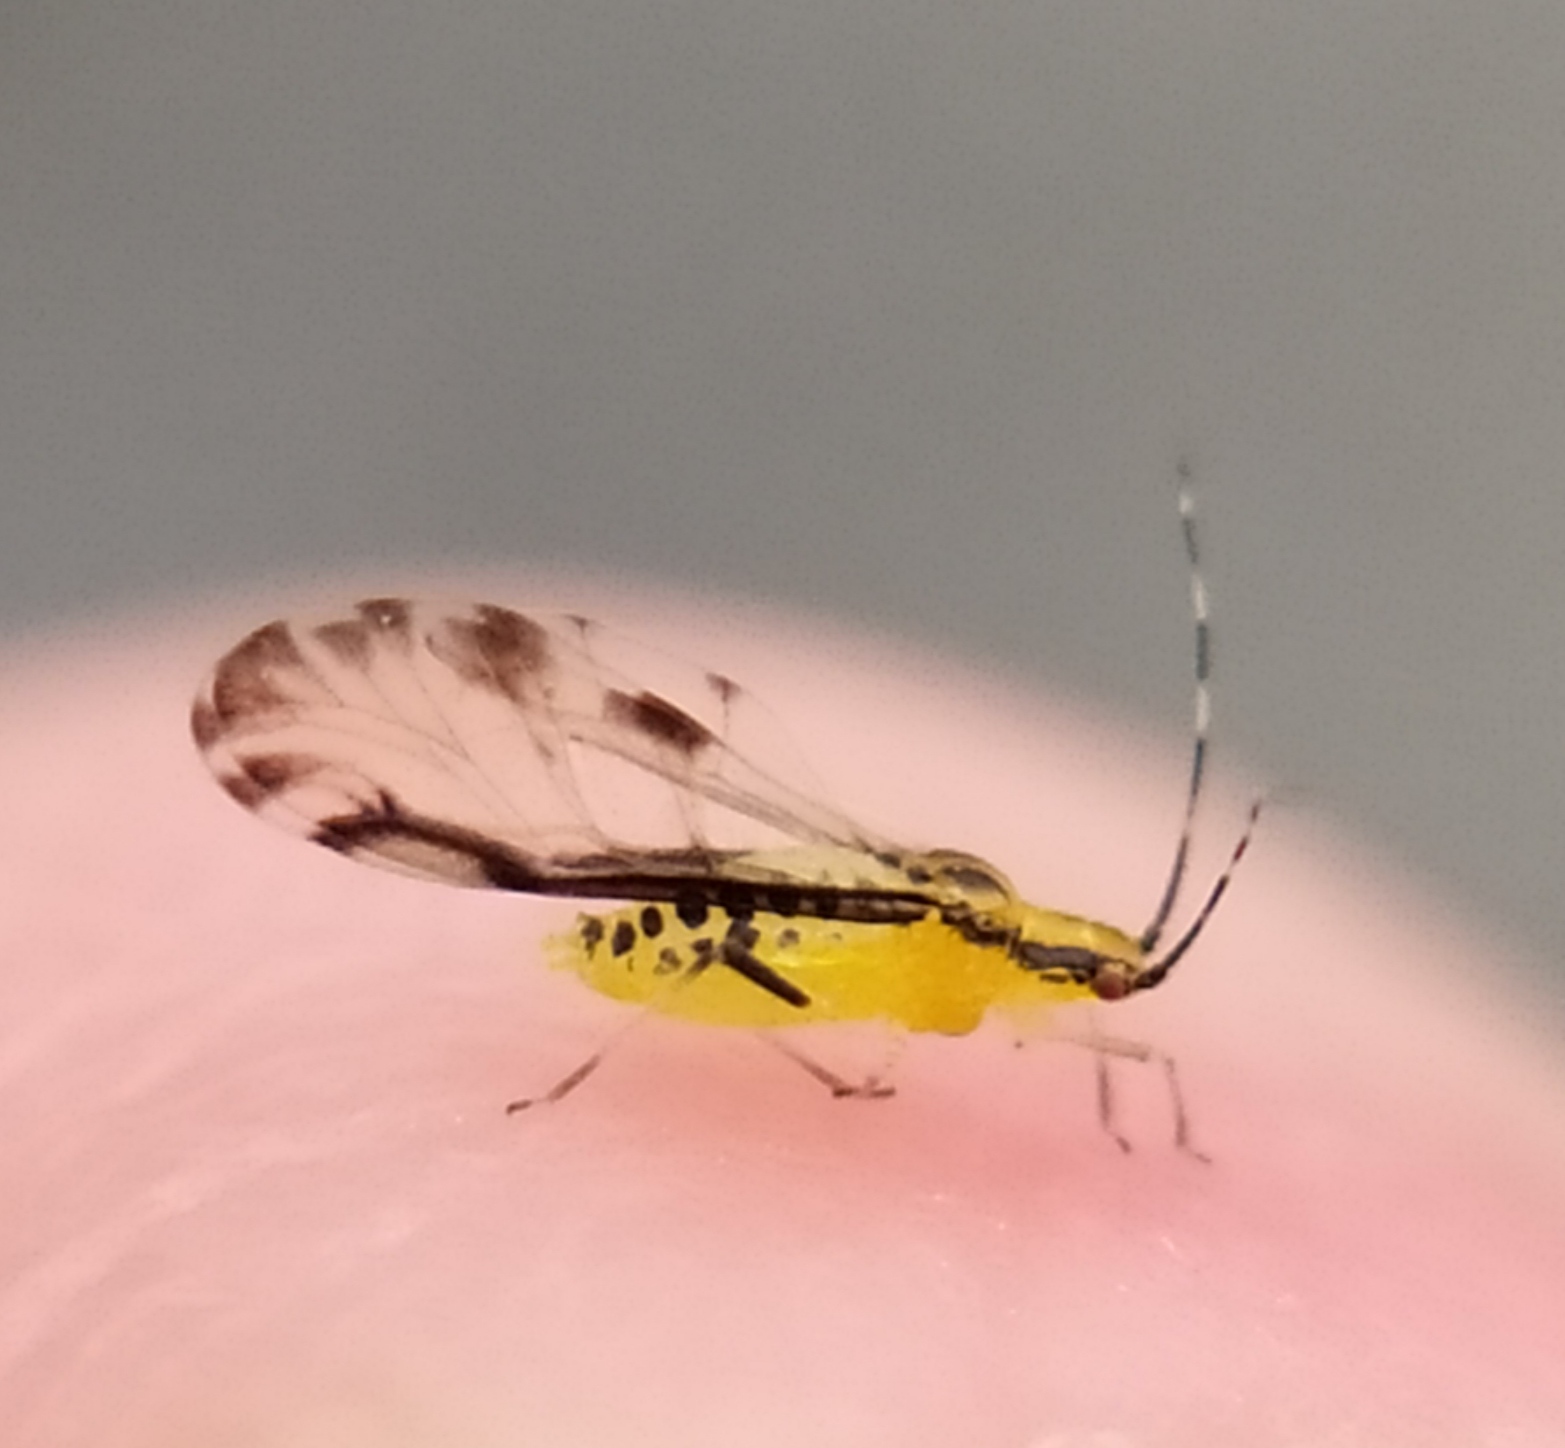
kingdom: Animalia
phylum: Arthropoda
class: Insecta
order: Hemiptera
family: Aphididae
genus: Eucallipterus
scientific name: Eucallipterus tiliae
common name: Aphid
